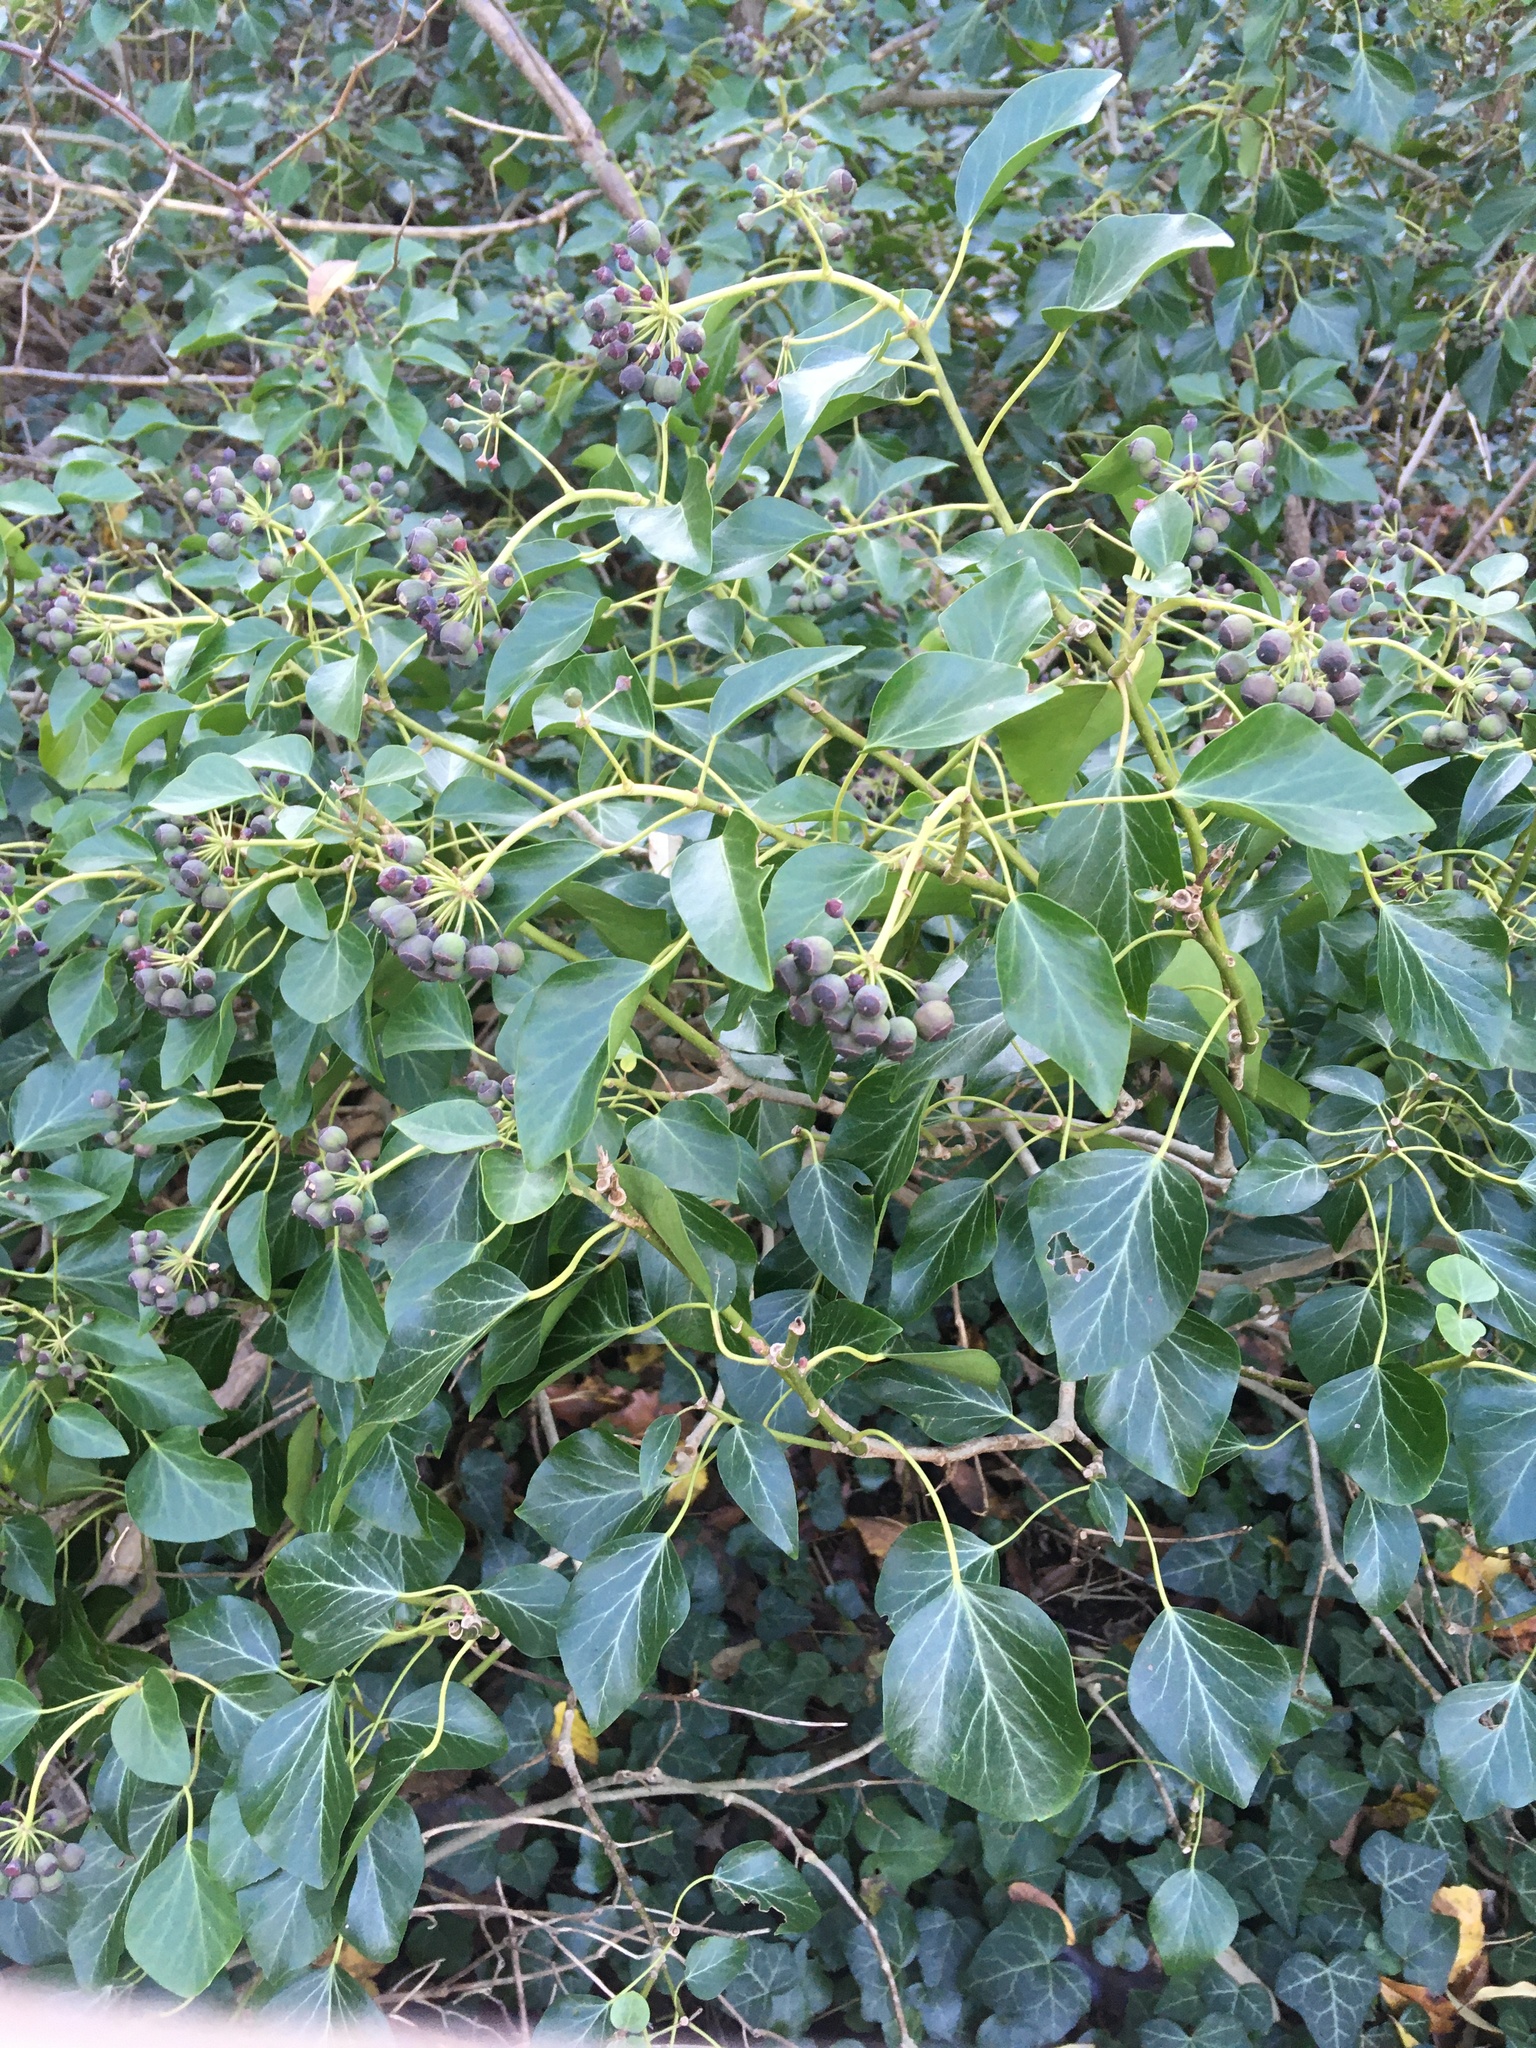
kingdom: Plantae
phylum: Tracheophyta
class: Magnoliopsida
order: Apiales
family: Araliaceae
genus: Hedera
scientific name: Hedera helix
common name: Ivy
